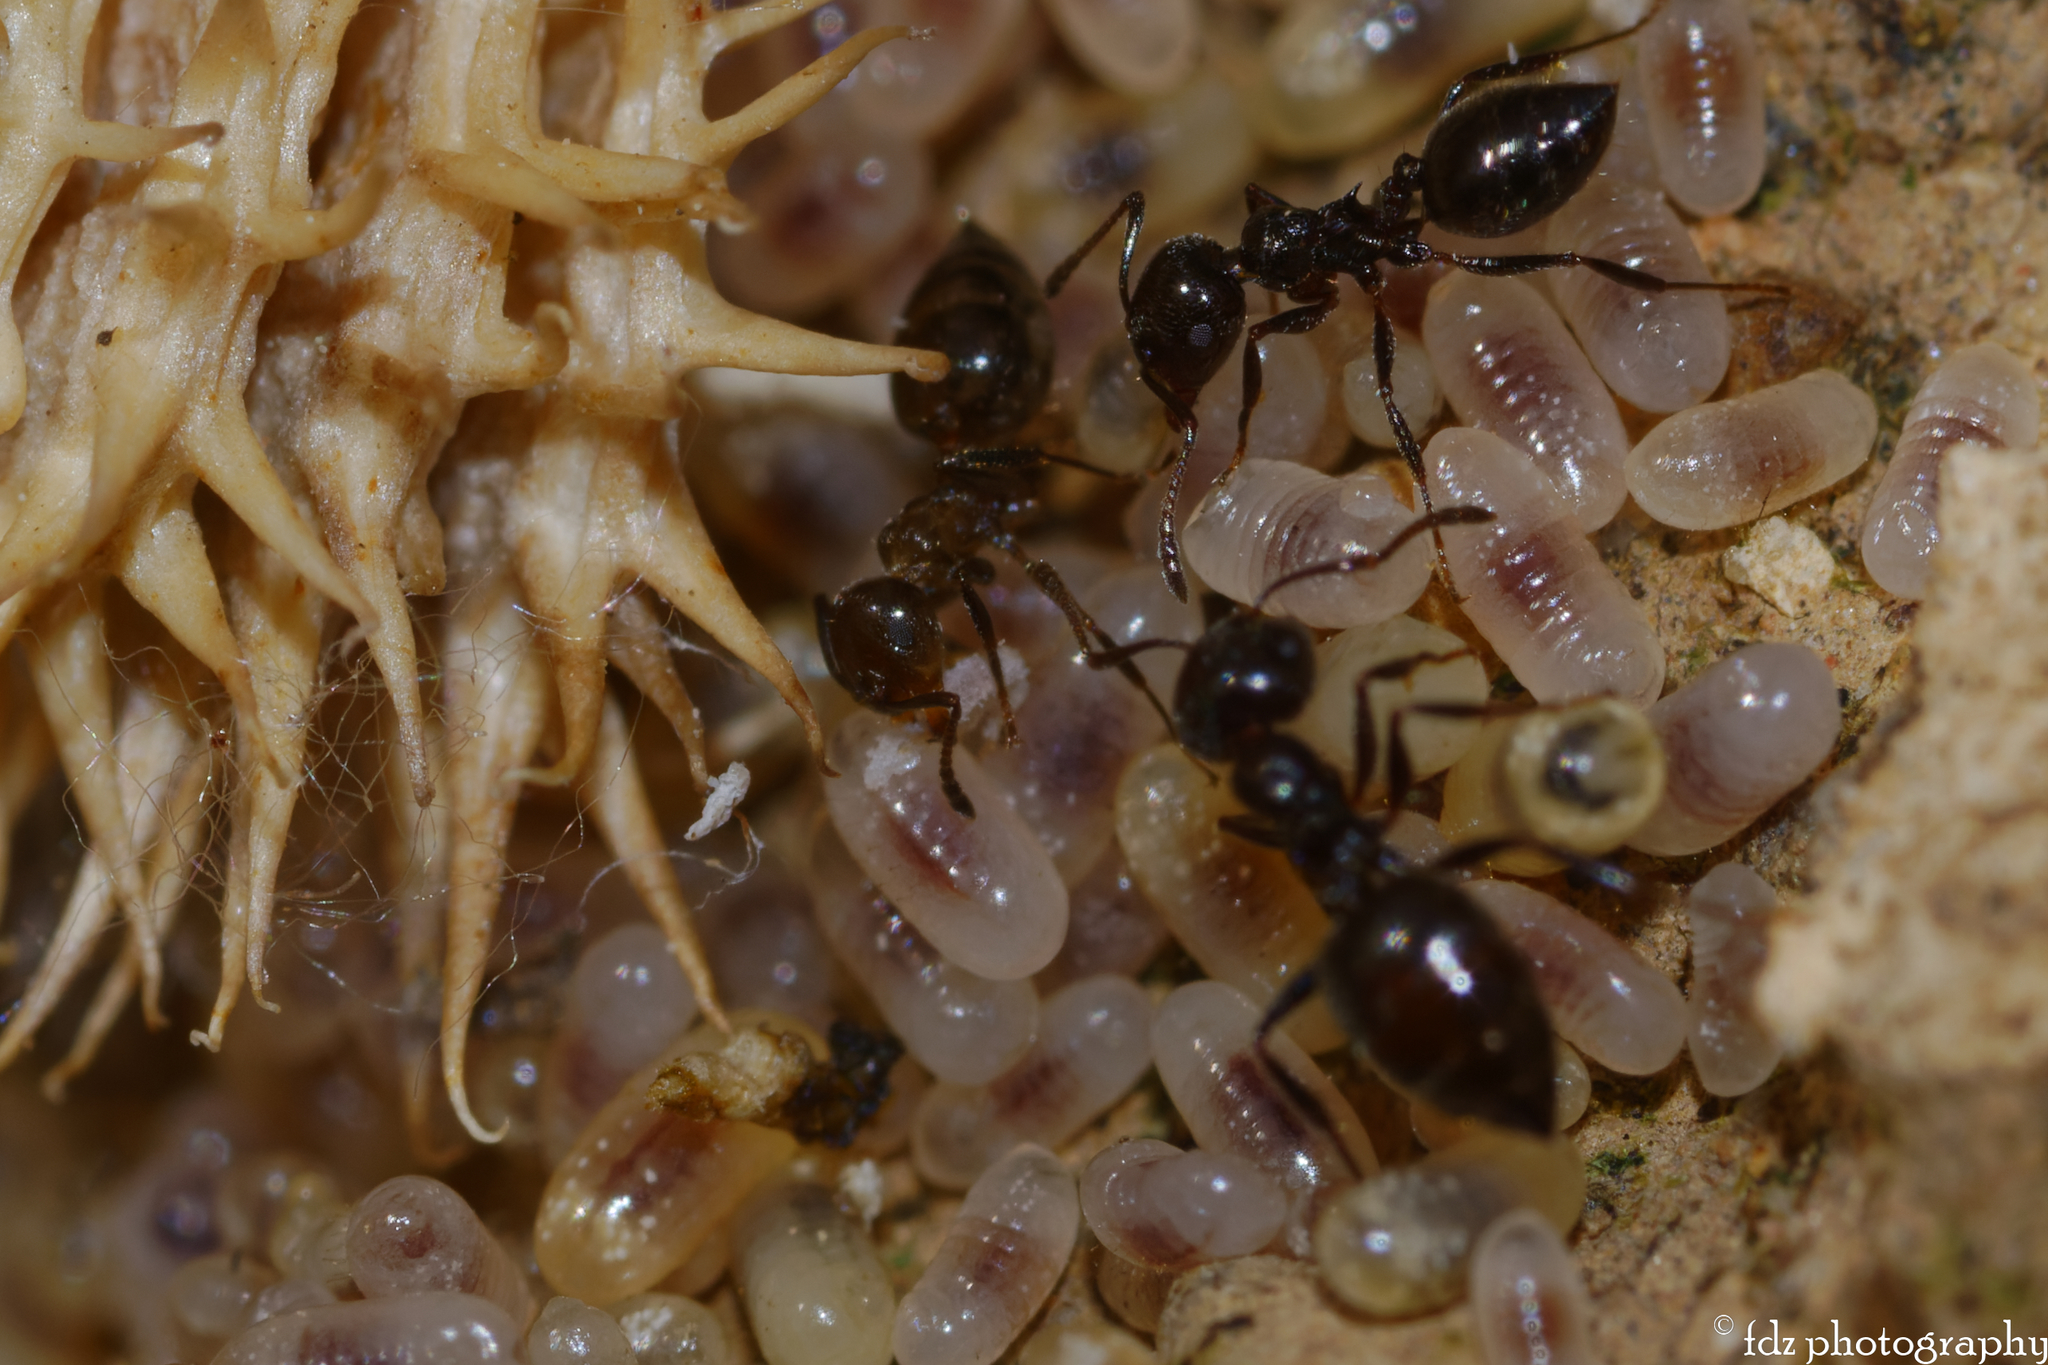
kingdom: Animalia
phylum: Arthropoda
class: Insecta
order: Hymenoptera
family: Formicidae
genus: Crematogaster
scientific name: Crematogaster auberti
